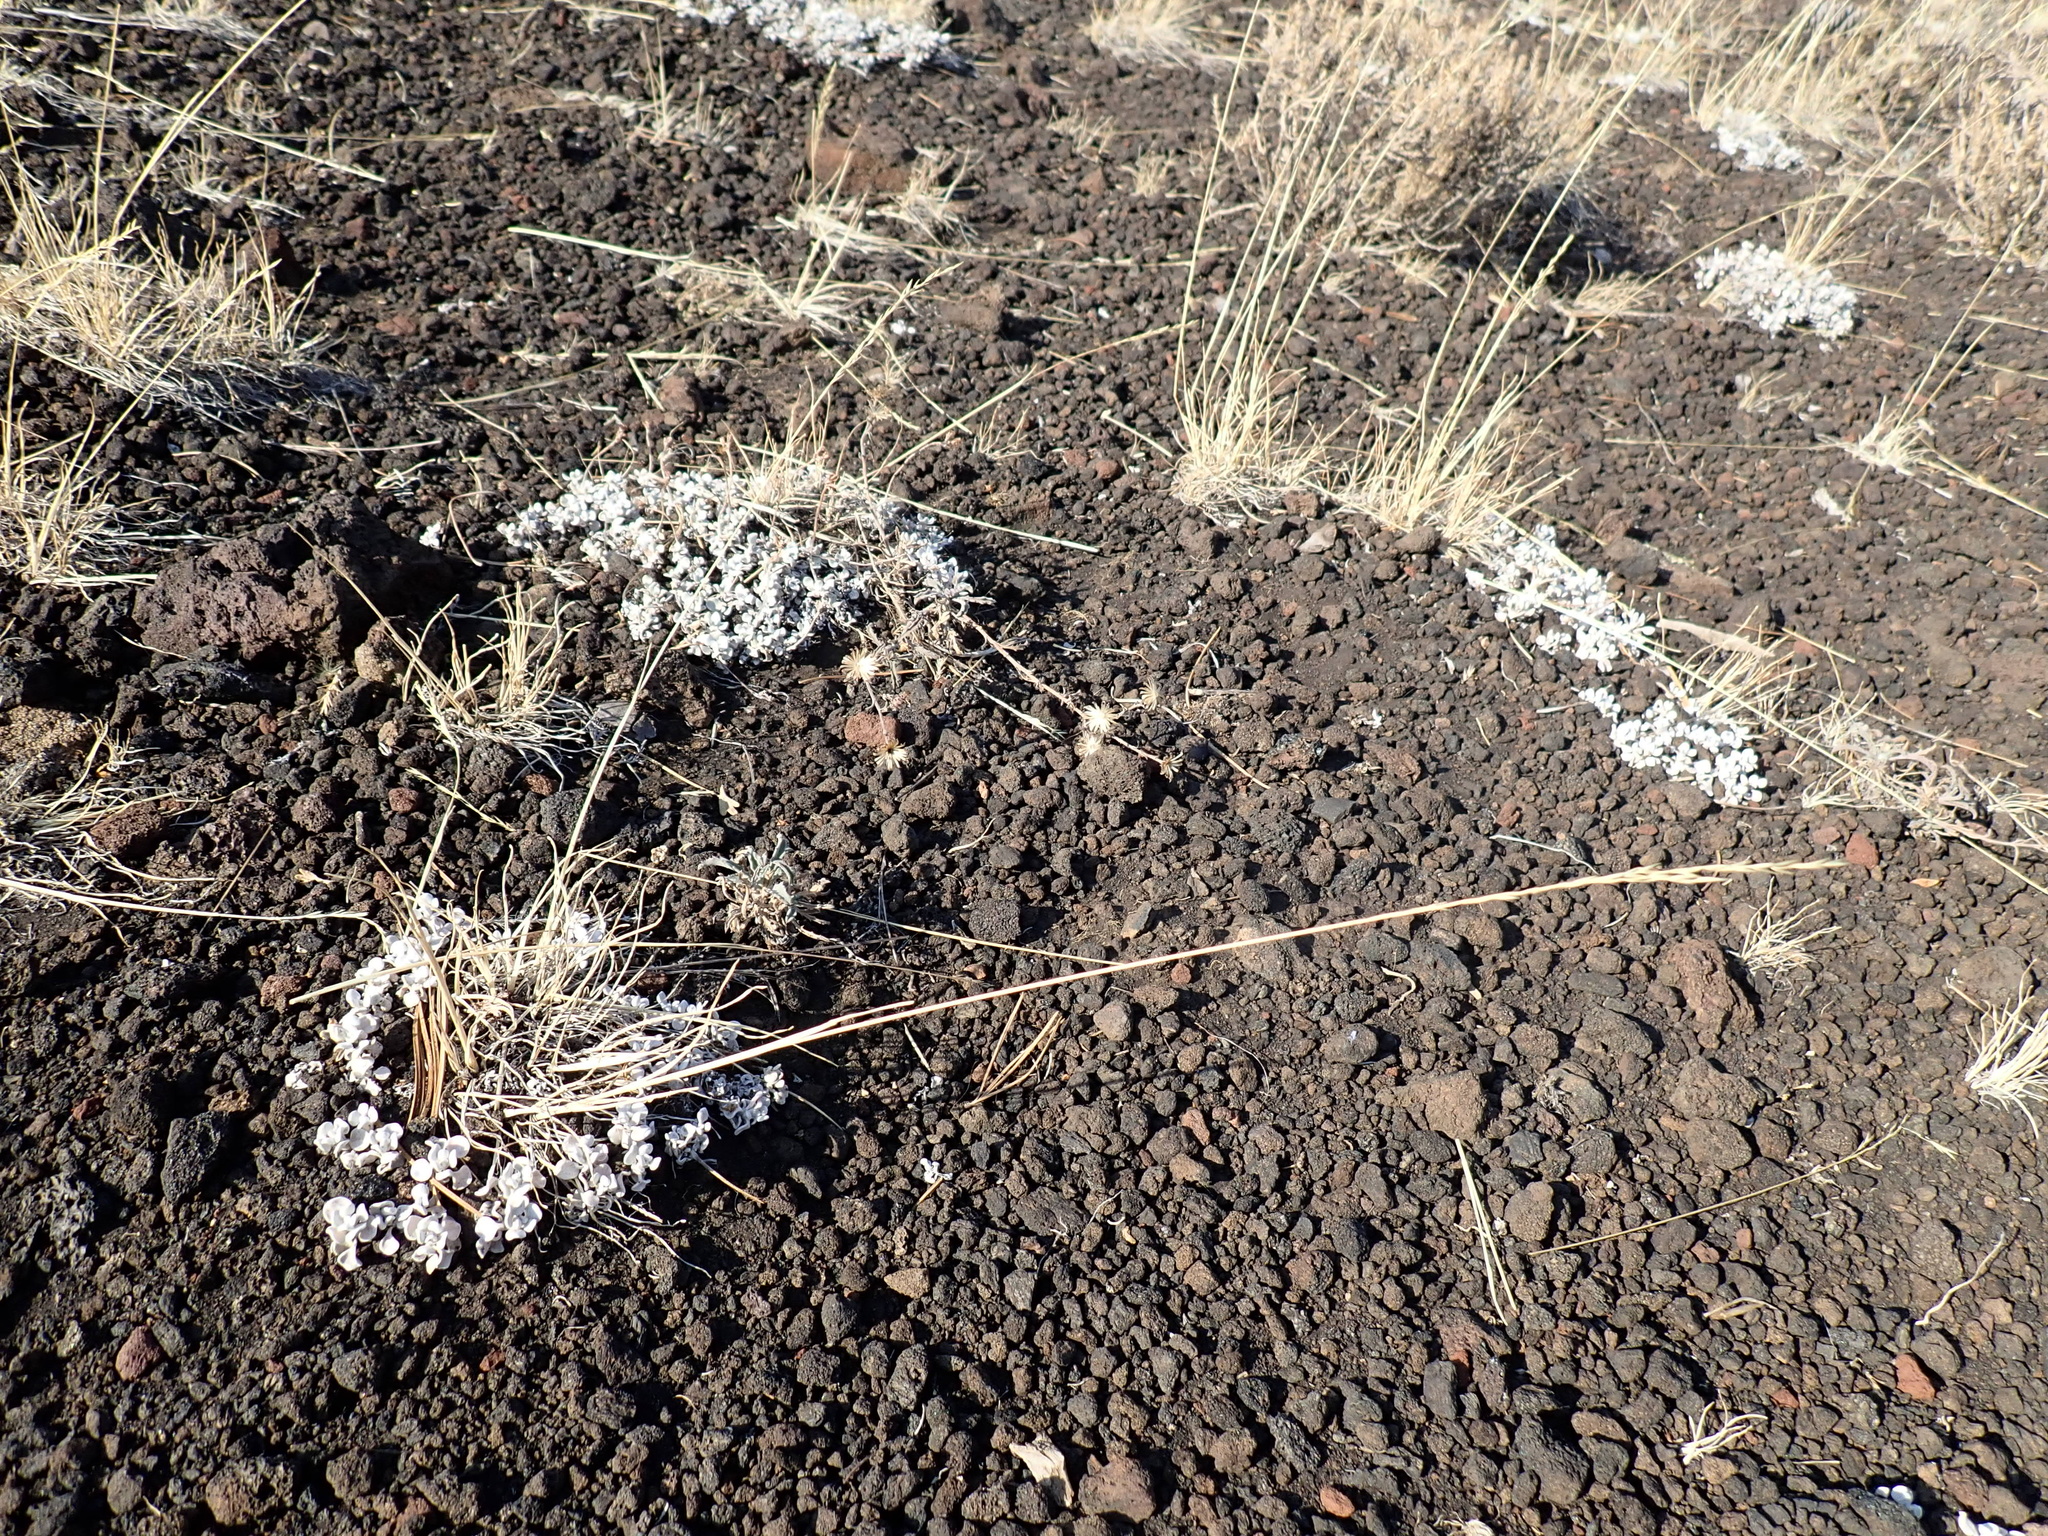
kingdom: Plantae
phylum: Tracheophyta
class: Liliopsida
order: Poales
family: Poaceae
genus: Poa
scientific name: Poa secunda
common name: Sandberg bluegrass
